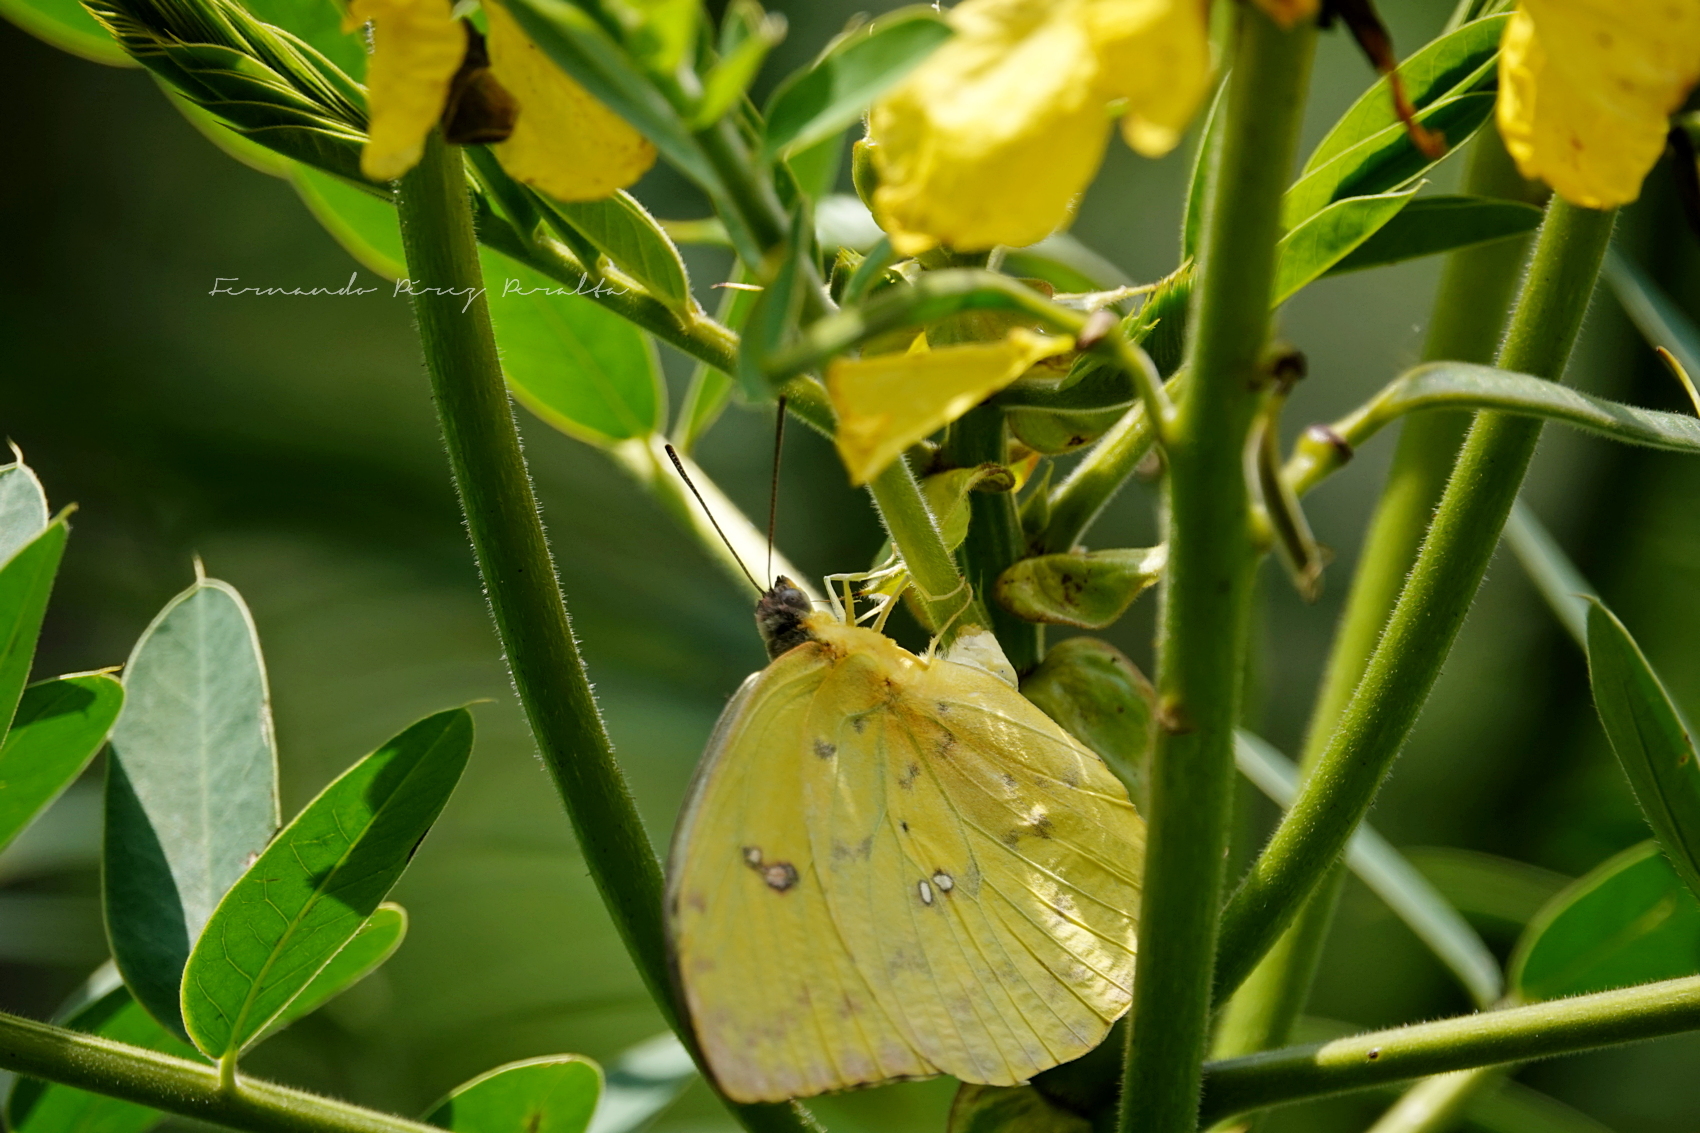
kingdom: Animalia
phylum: Arthropoda
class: Insecta
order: Lepidoptera
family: Pieridae
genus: Phoebis
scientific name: Phoebis philea
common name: Orange-barred giant sulphur
